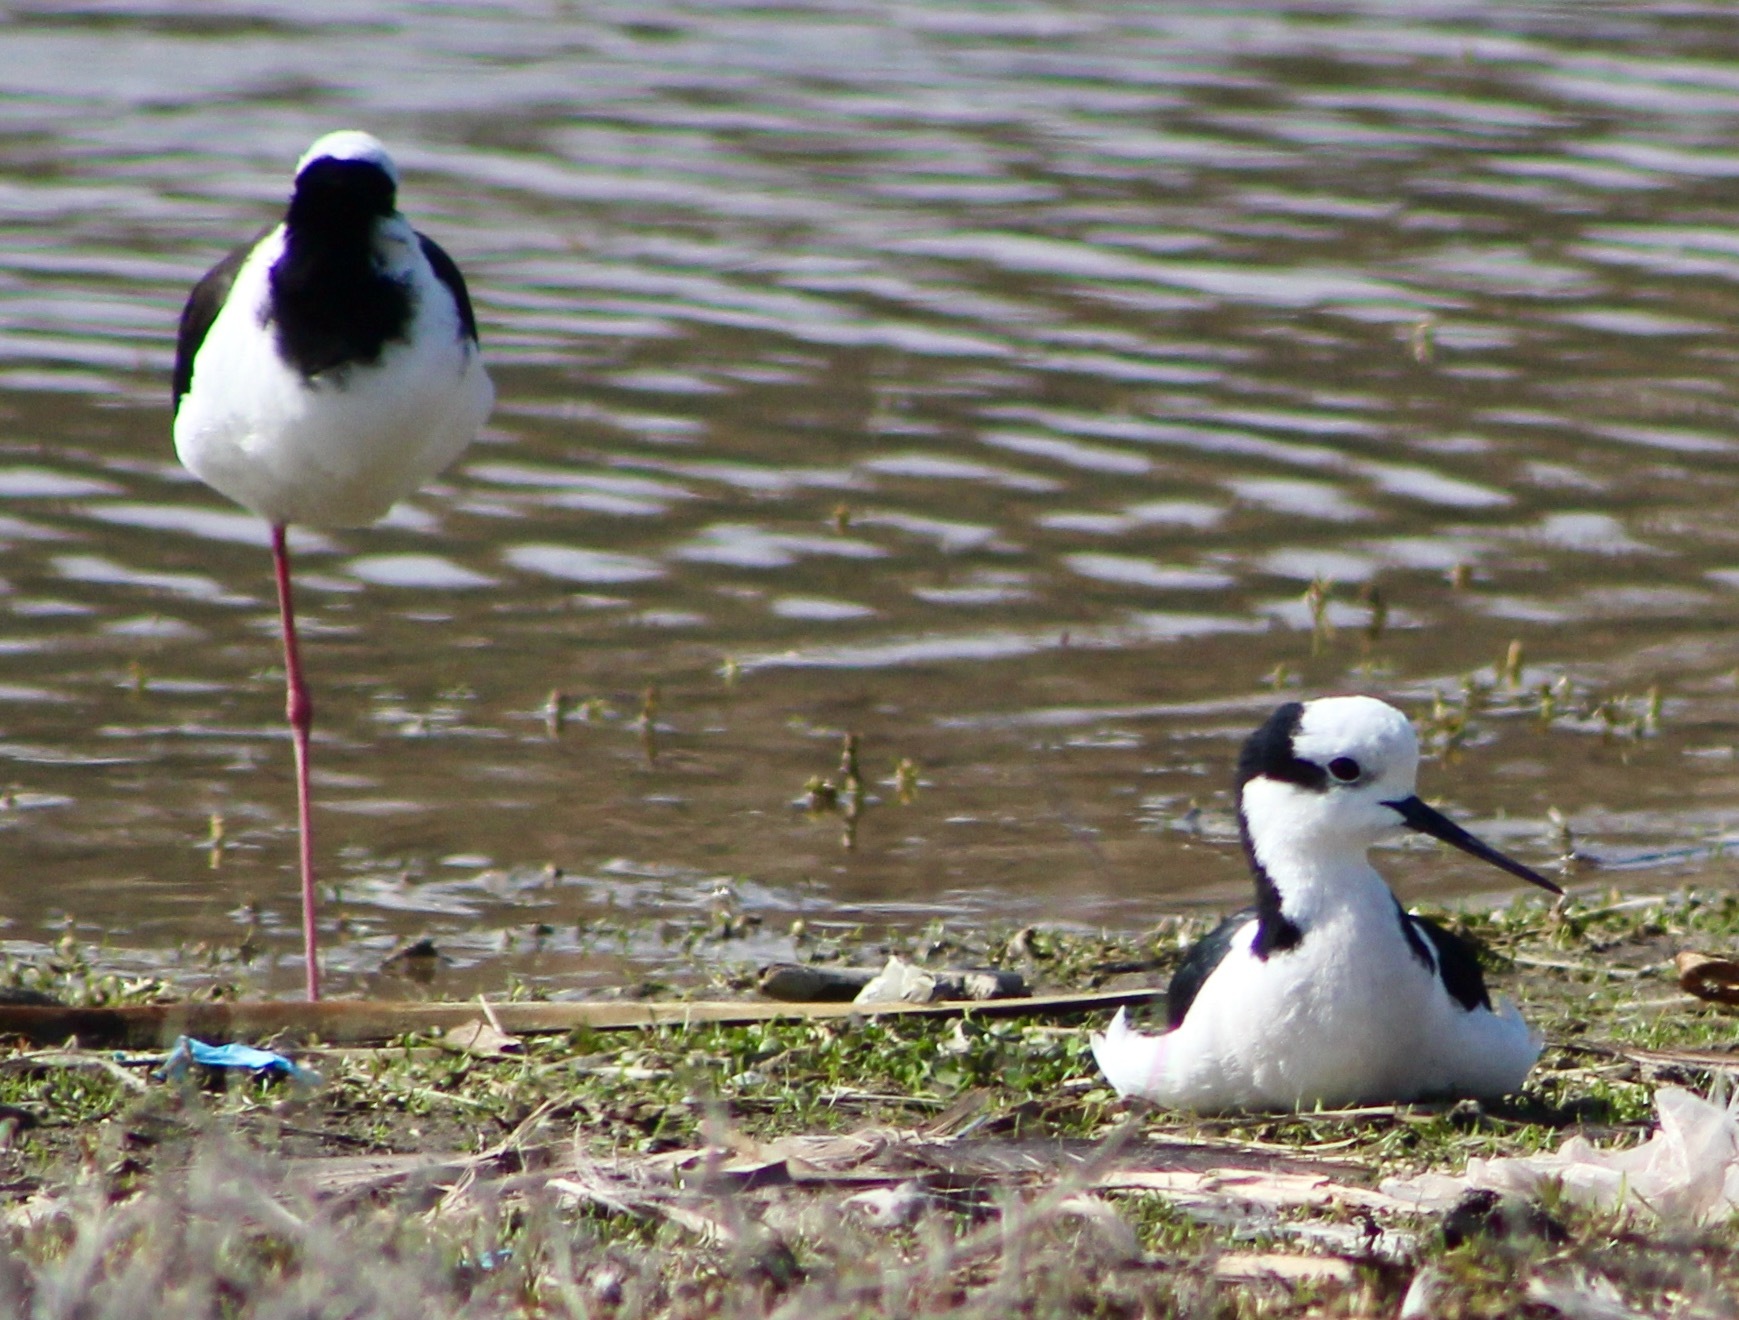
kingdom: Animalia
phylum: Chordata
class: Aves
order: Charadriiformes
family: Recurvirostridae
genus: Himantopus
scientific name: Himantopus mexicanus
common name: Black-necked stilt
